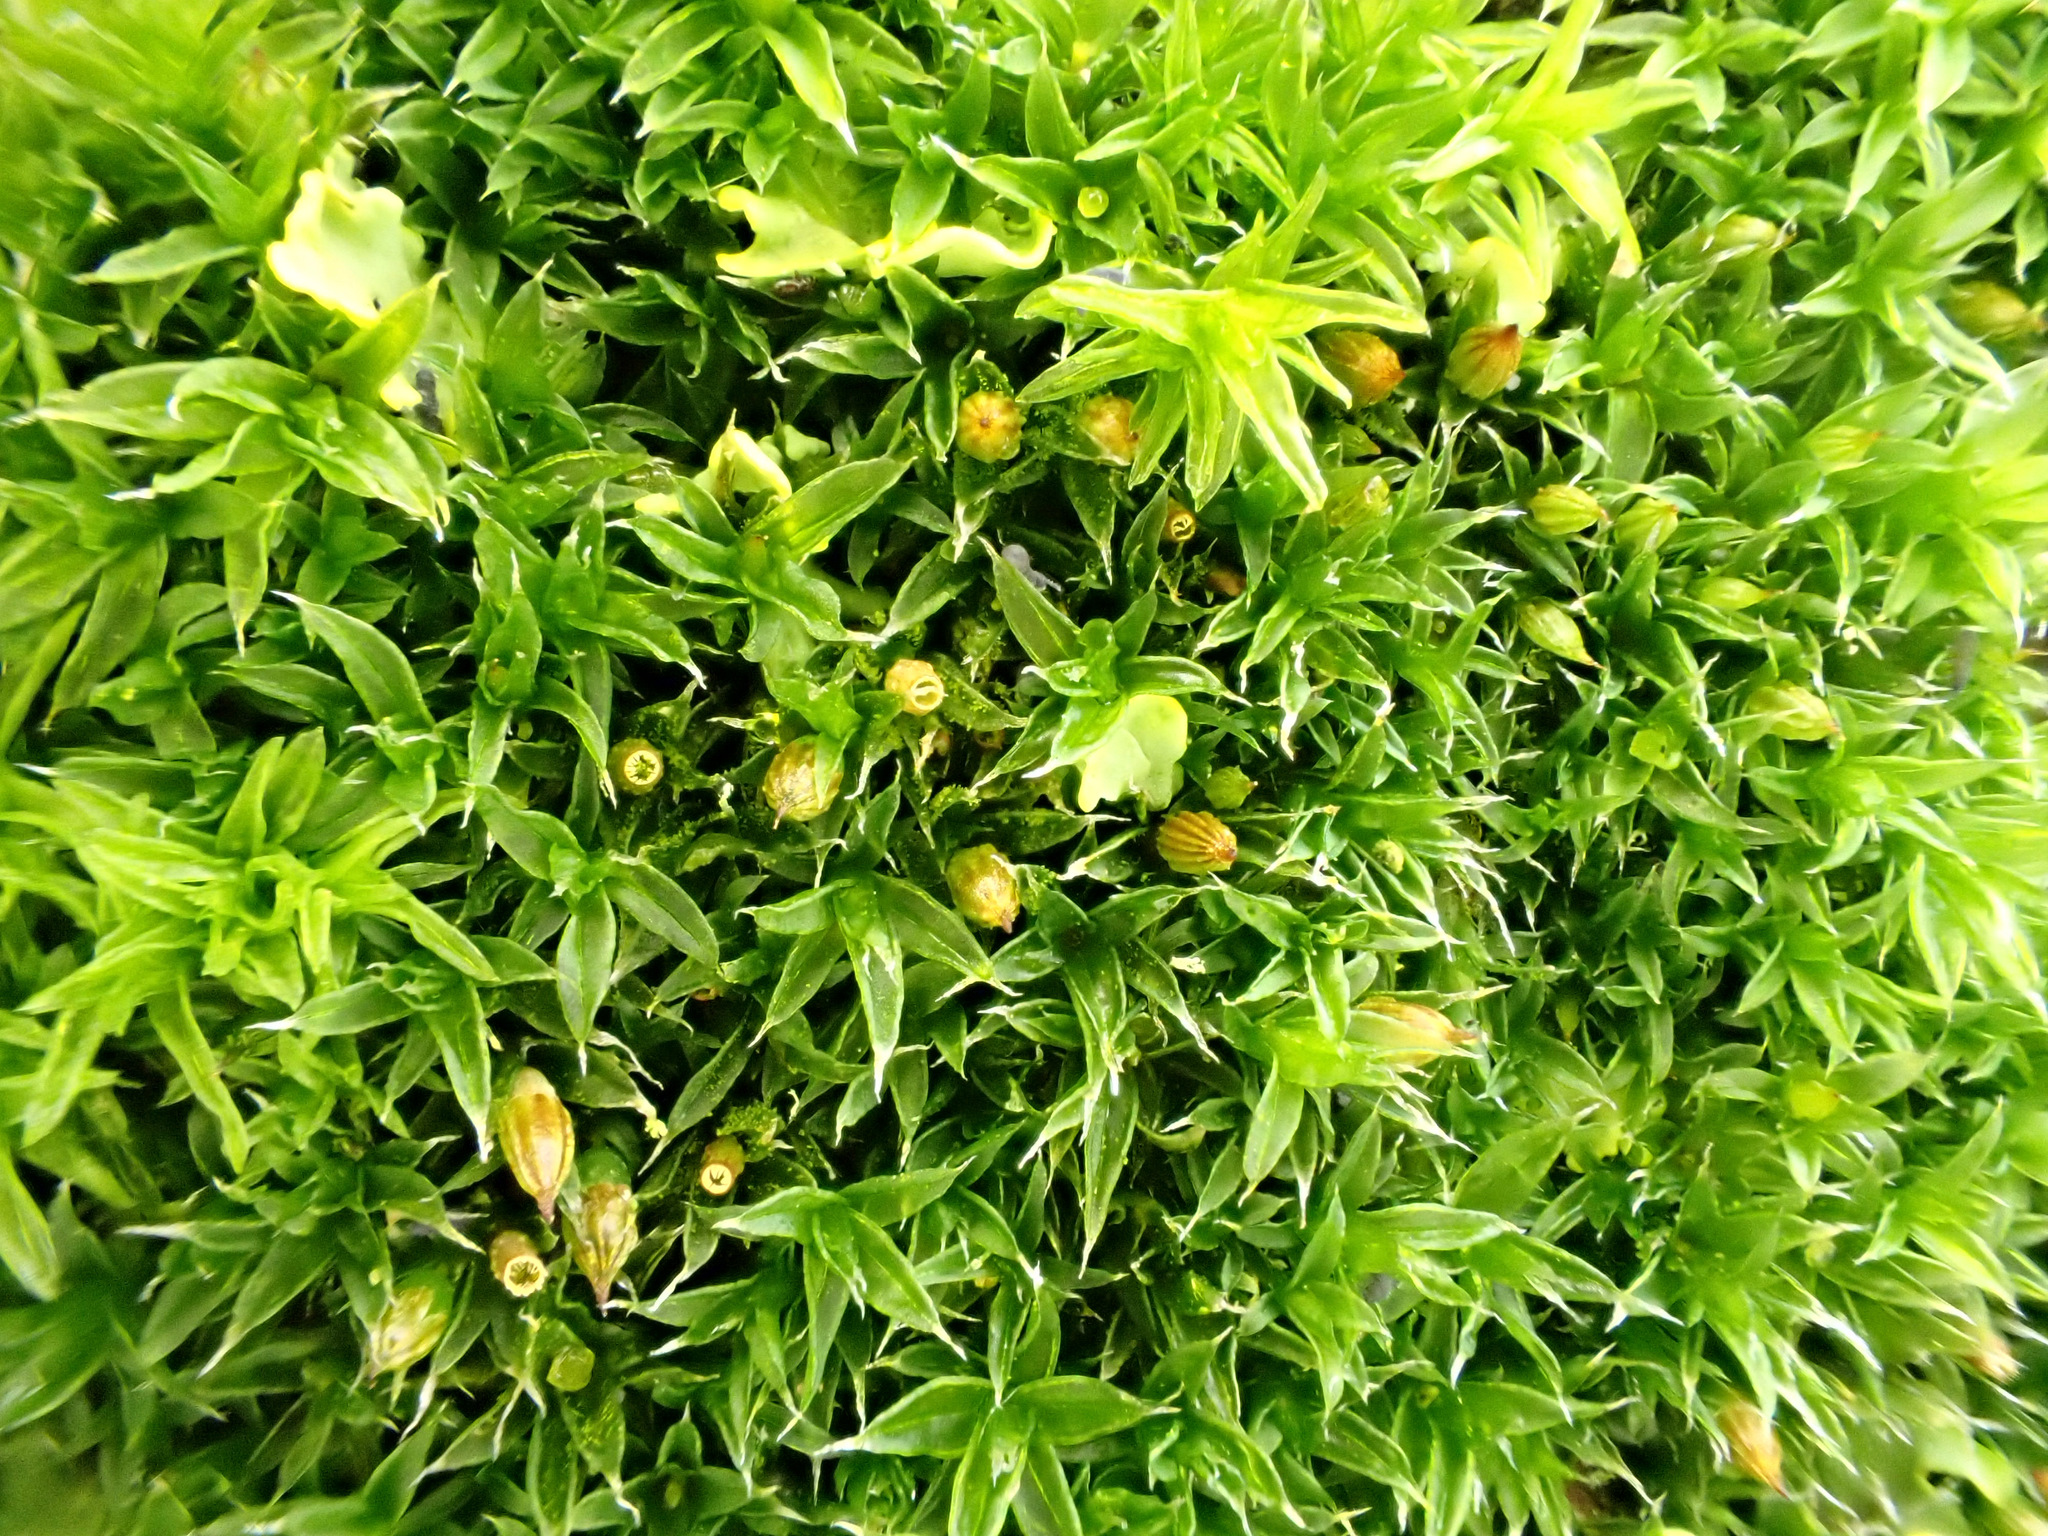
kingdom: Plantae
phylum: Bryophyta
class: Bryopsida
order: Orthotrichales
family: Orthotrichaceae
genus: Orthotrichum
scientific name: Orthotrichum diaphanum
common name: White-tipped bristle-moss
